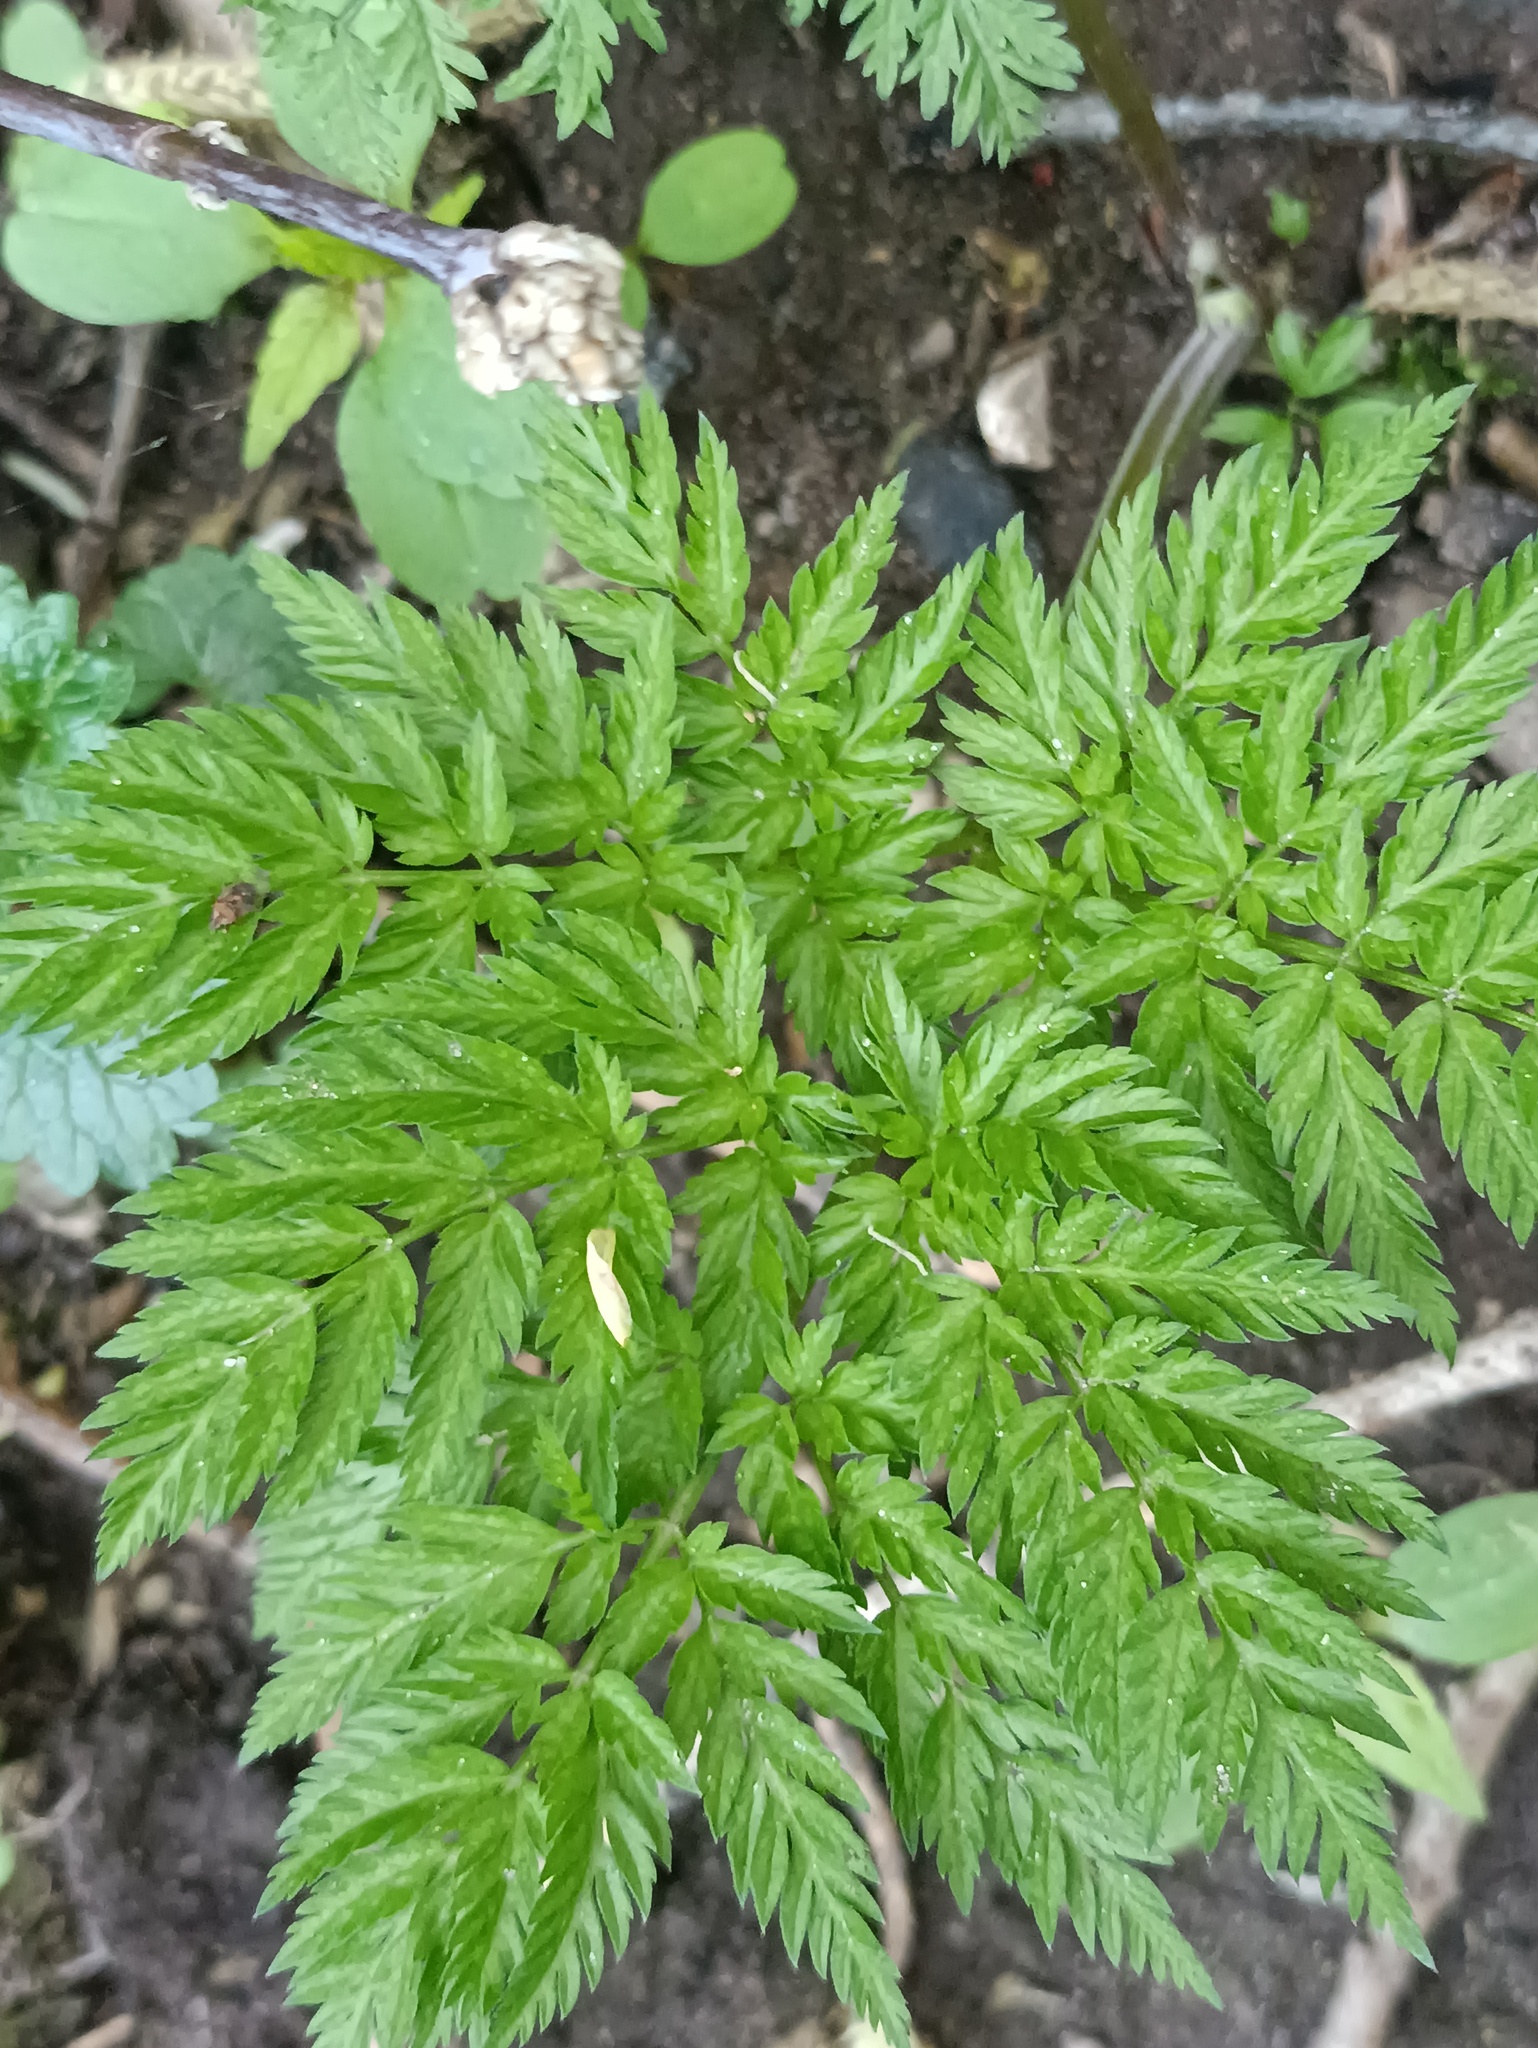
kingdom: Plantae
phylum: Tracheophyta
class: Magnoliopsida
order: Apiales
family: Apiaceae
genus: Anthriscus
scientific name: Anthriscus sylvestris
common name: Cow parsley
